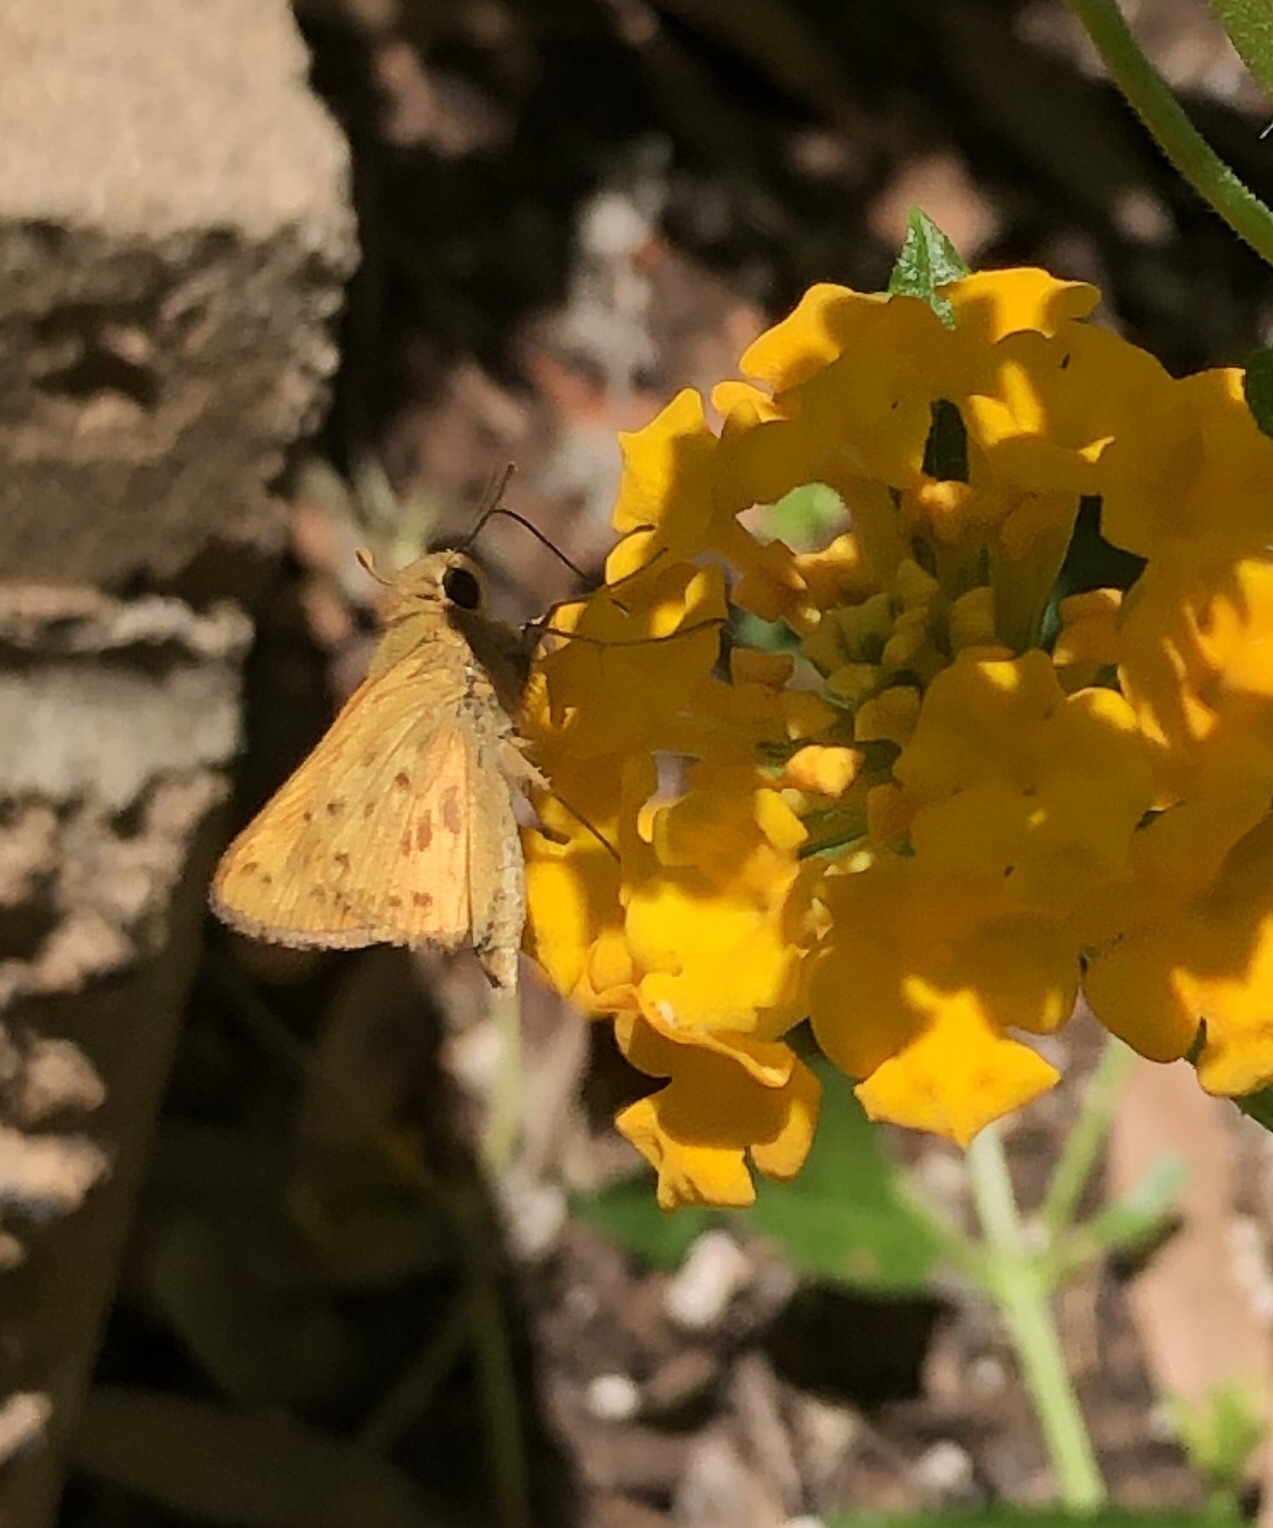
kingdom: Animalia
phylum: Arthropoda
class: Insecta
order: Lepidoptera
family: Hesperiidae
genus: Hylephila
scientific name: Hylephila phyleus
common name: Fiery skipper
